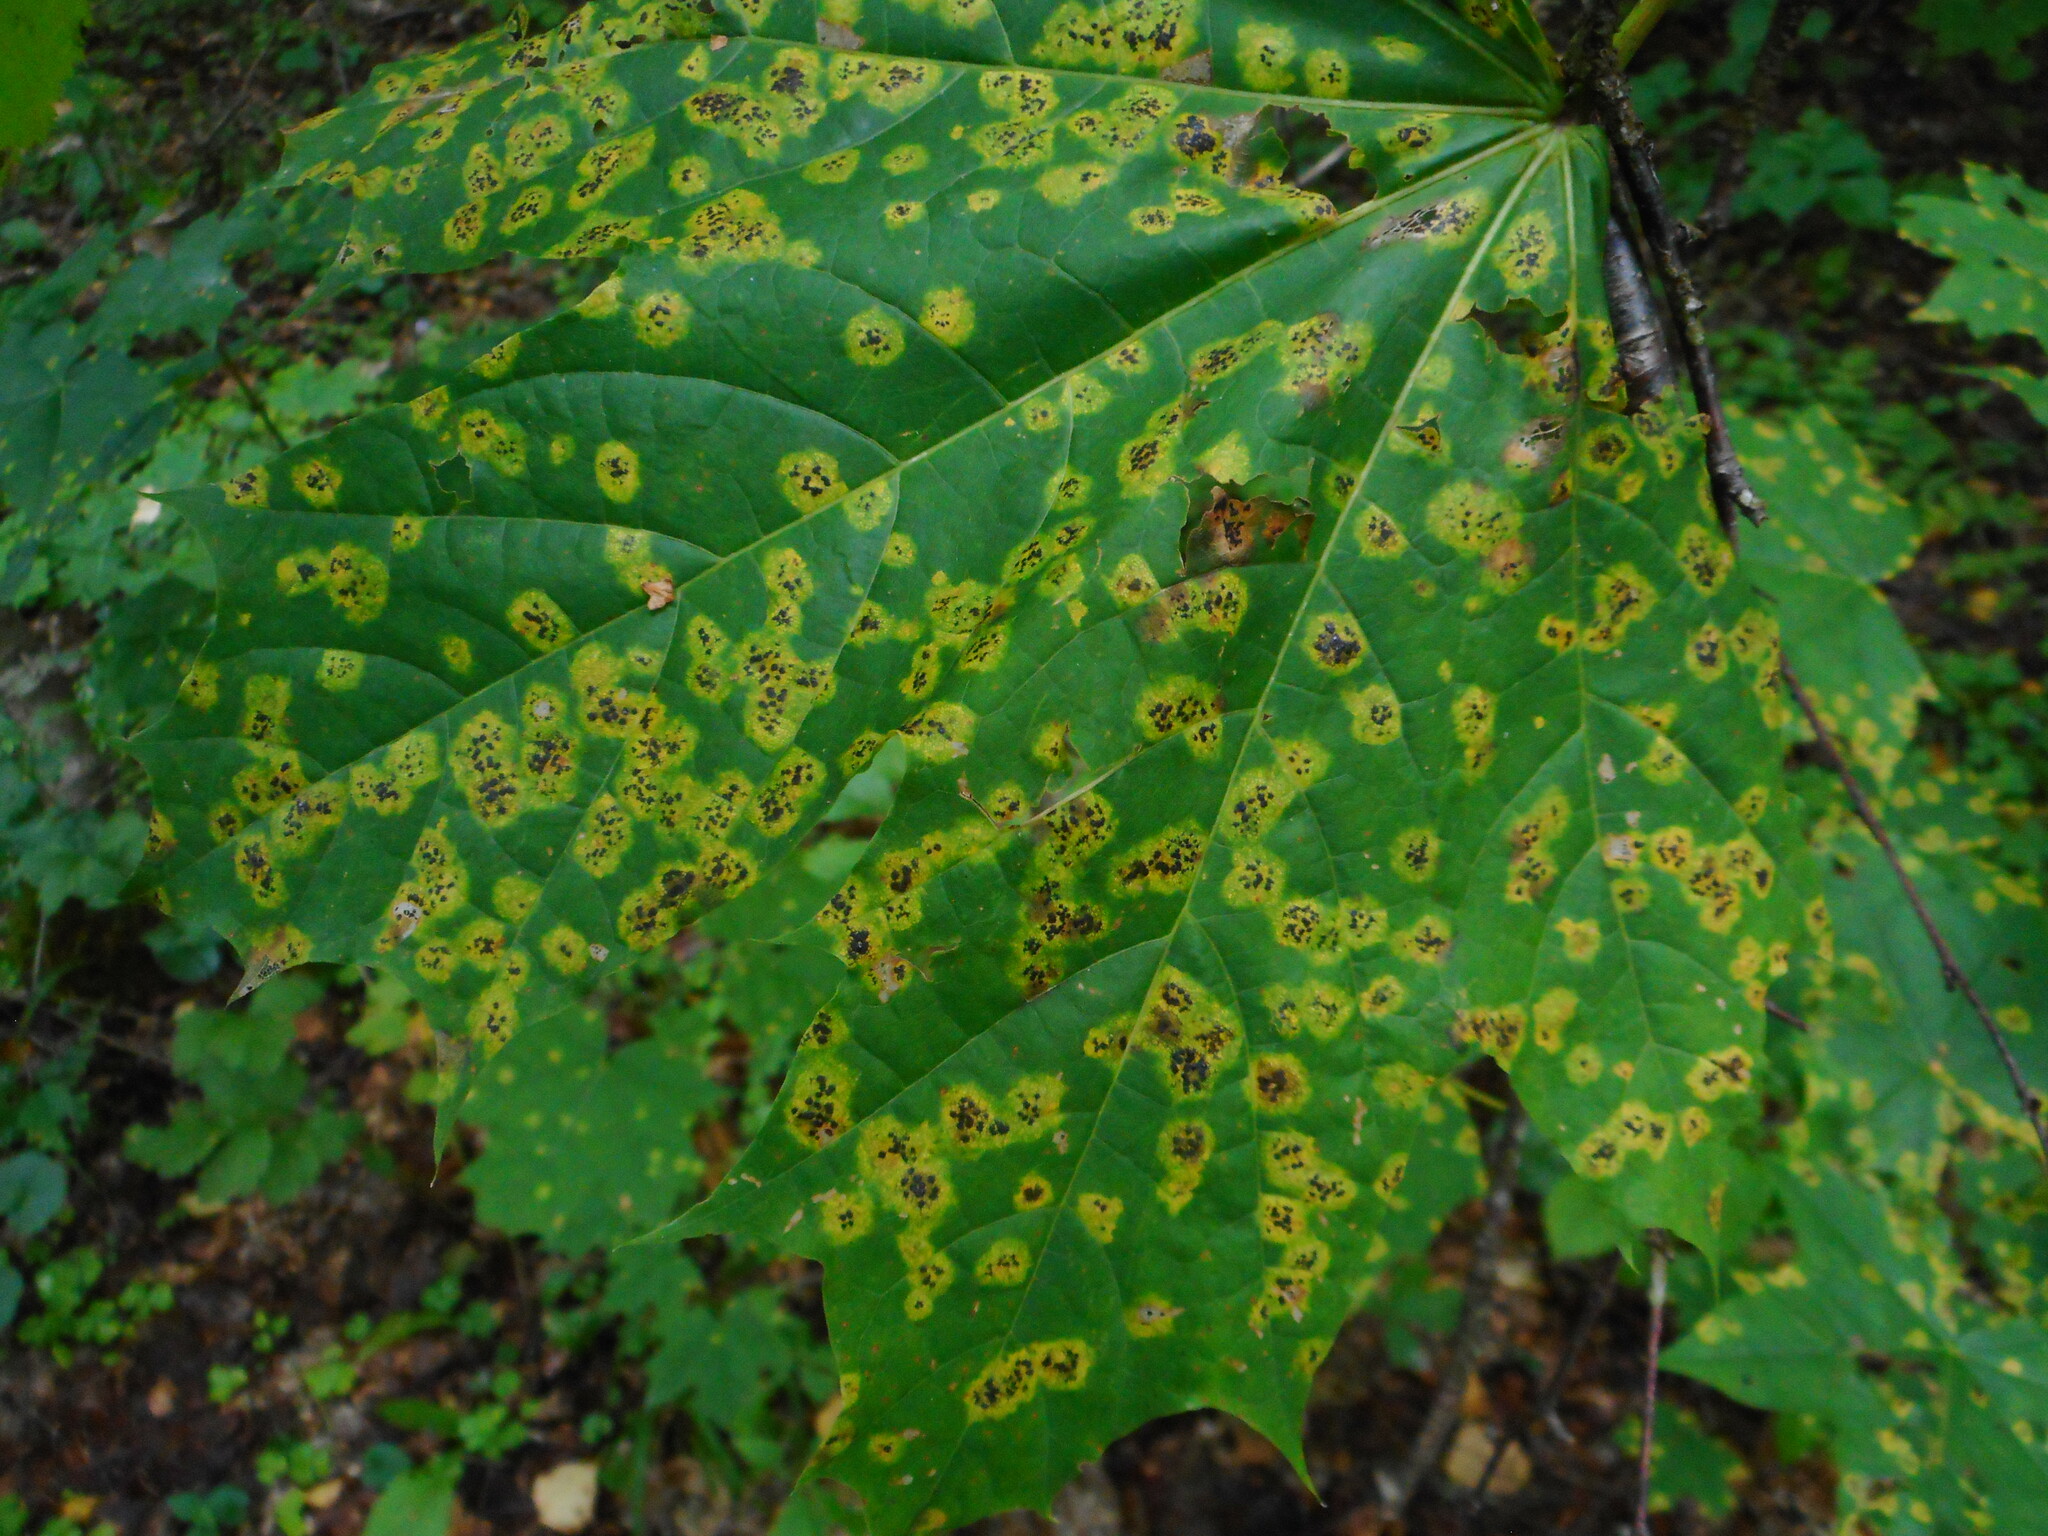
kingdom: Fungi
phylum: Ascomycota
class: Leotiomycetes
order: Rhytismatales
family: Rhytismataceae
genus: Rhytisma
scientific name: Rhytisma acerinum
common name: European tar spot
